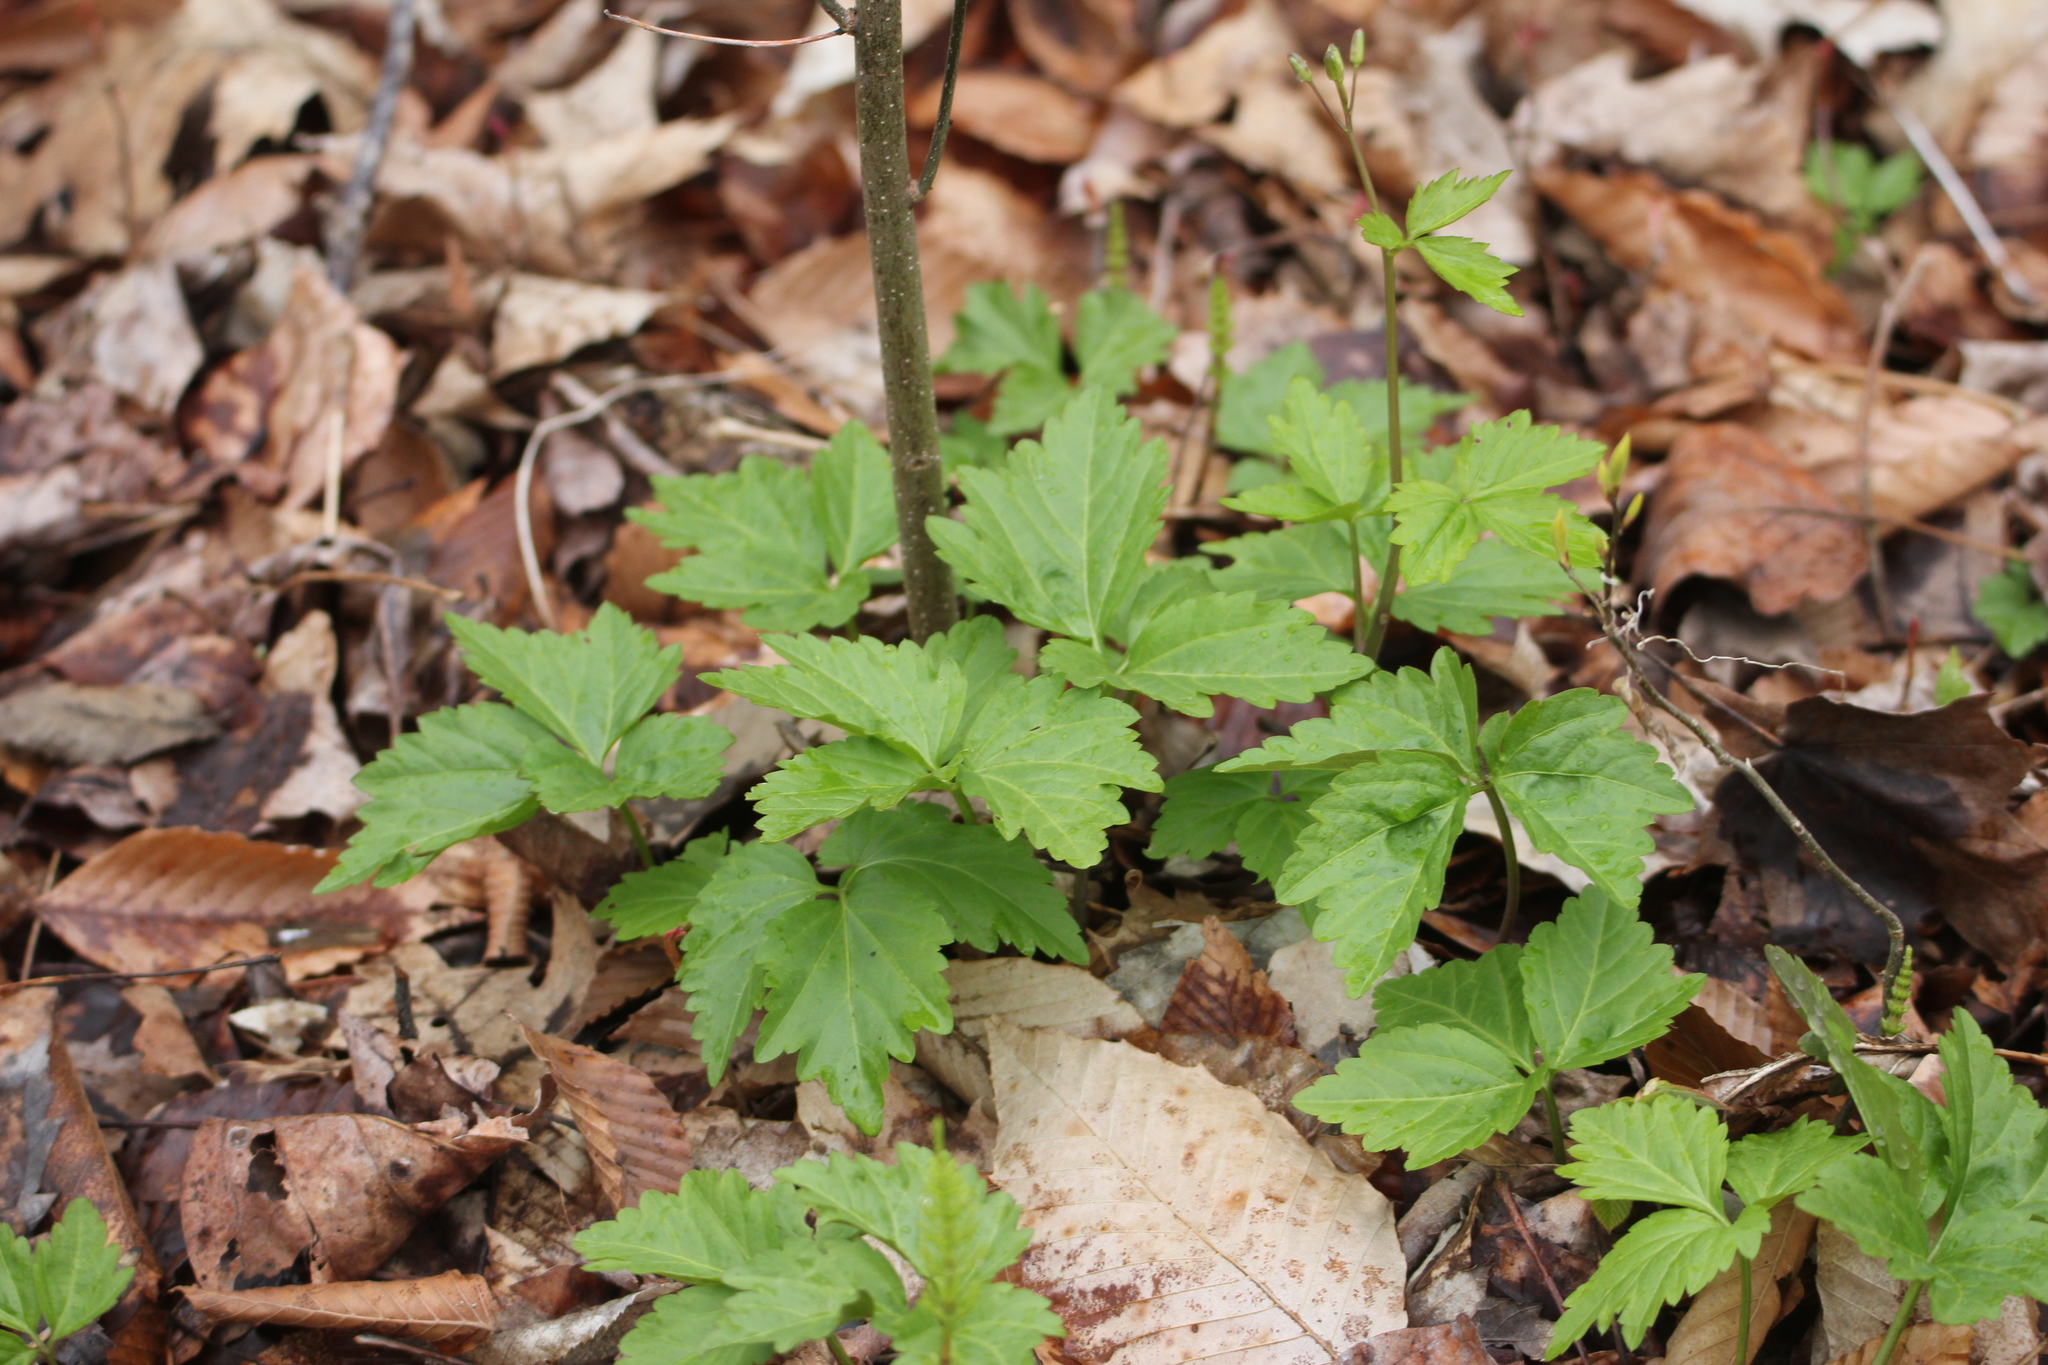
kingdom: Plantae
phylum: Tracheophyta
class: Magnoliopsida
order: Brassicales
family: Brassicaceae
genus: Cardamine
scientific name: Cardamine diphylla
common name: Broad-leaved toothwort
